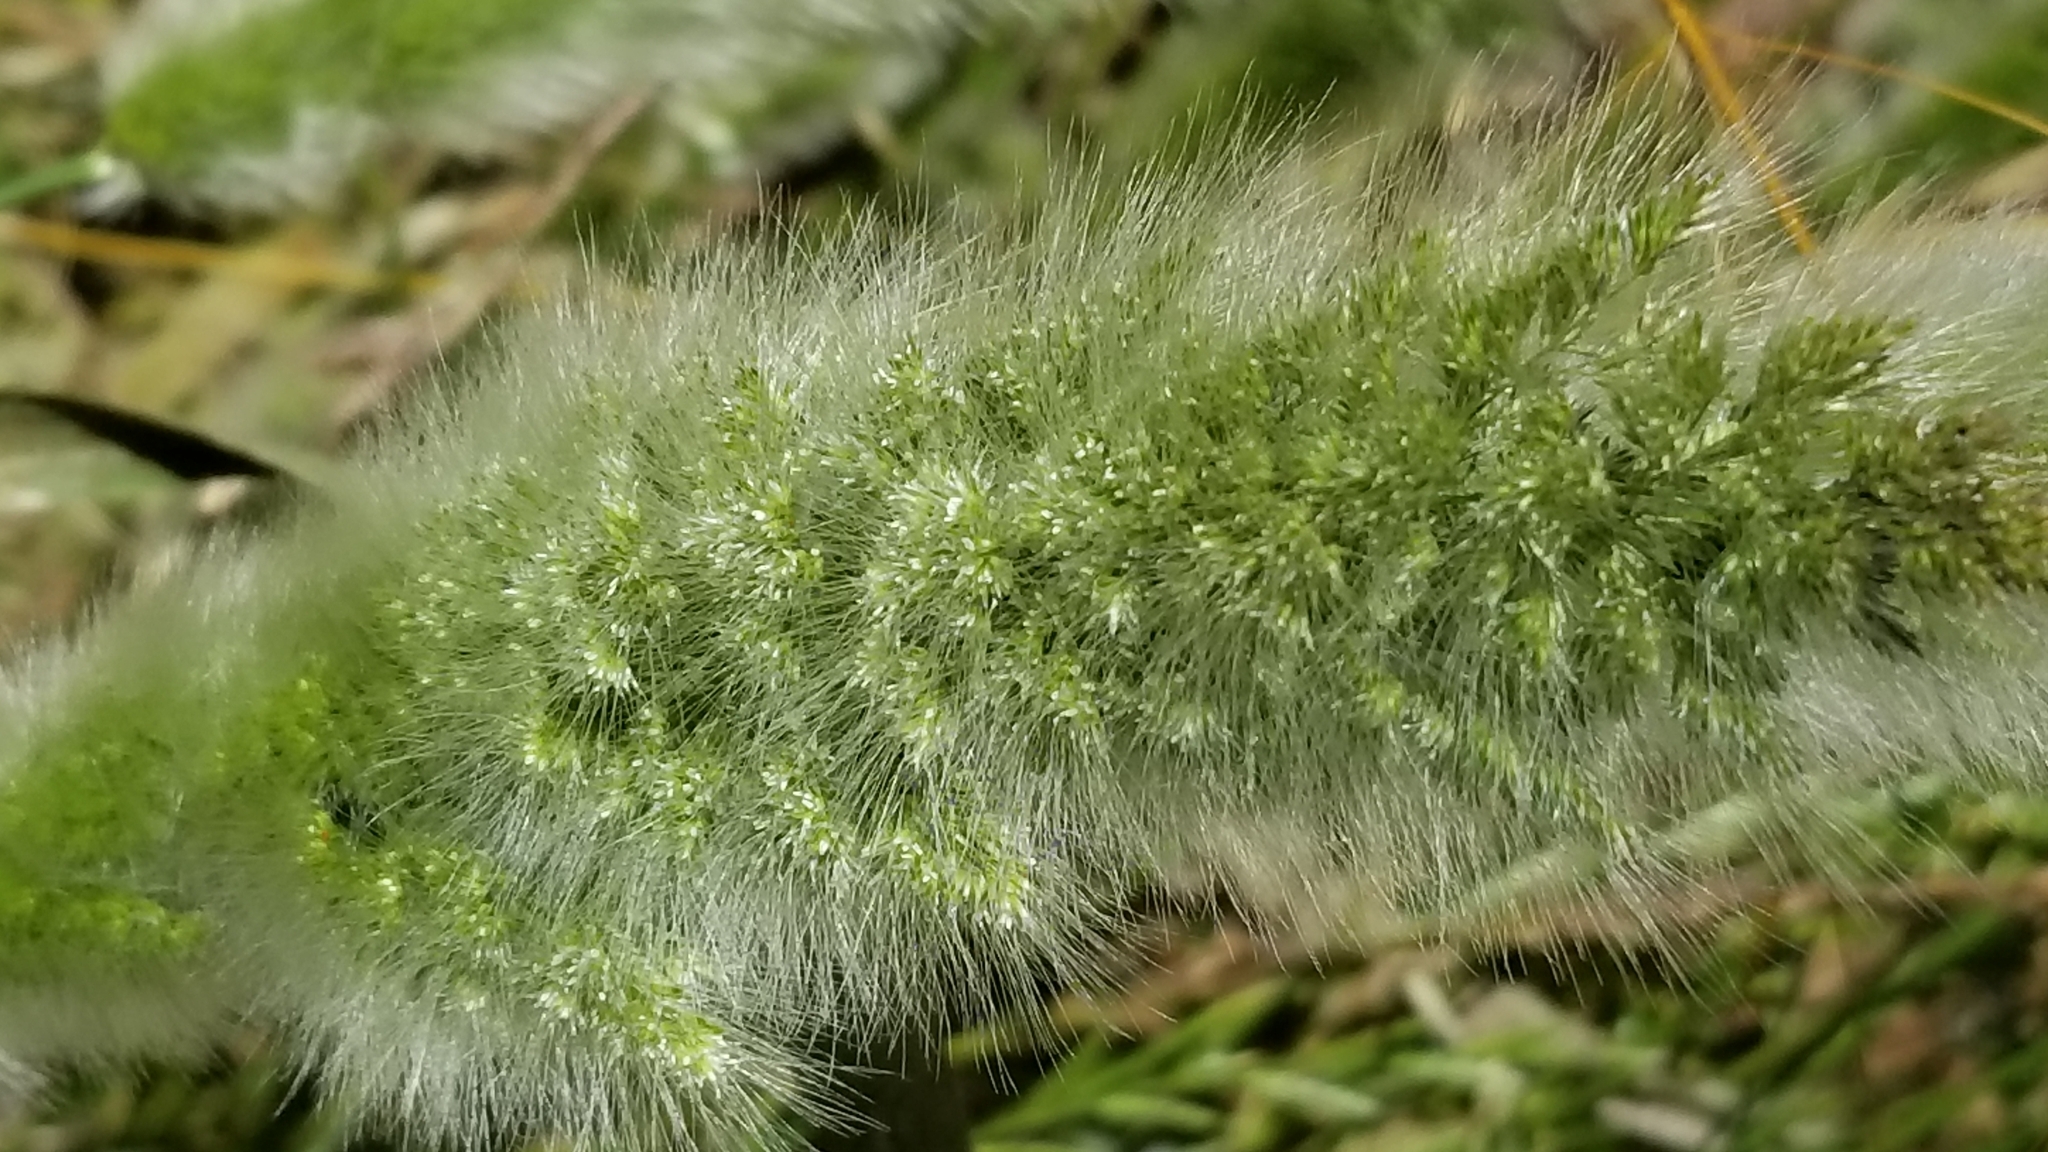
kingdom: Plantae
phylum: Tracheophyta
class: Liliopsida
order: Poales
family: Poaceae
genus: Polypogon
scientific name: Polypogon monspeliensis
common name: Annual rabbitsfoot grass
